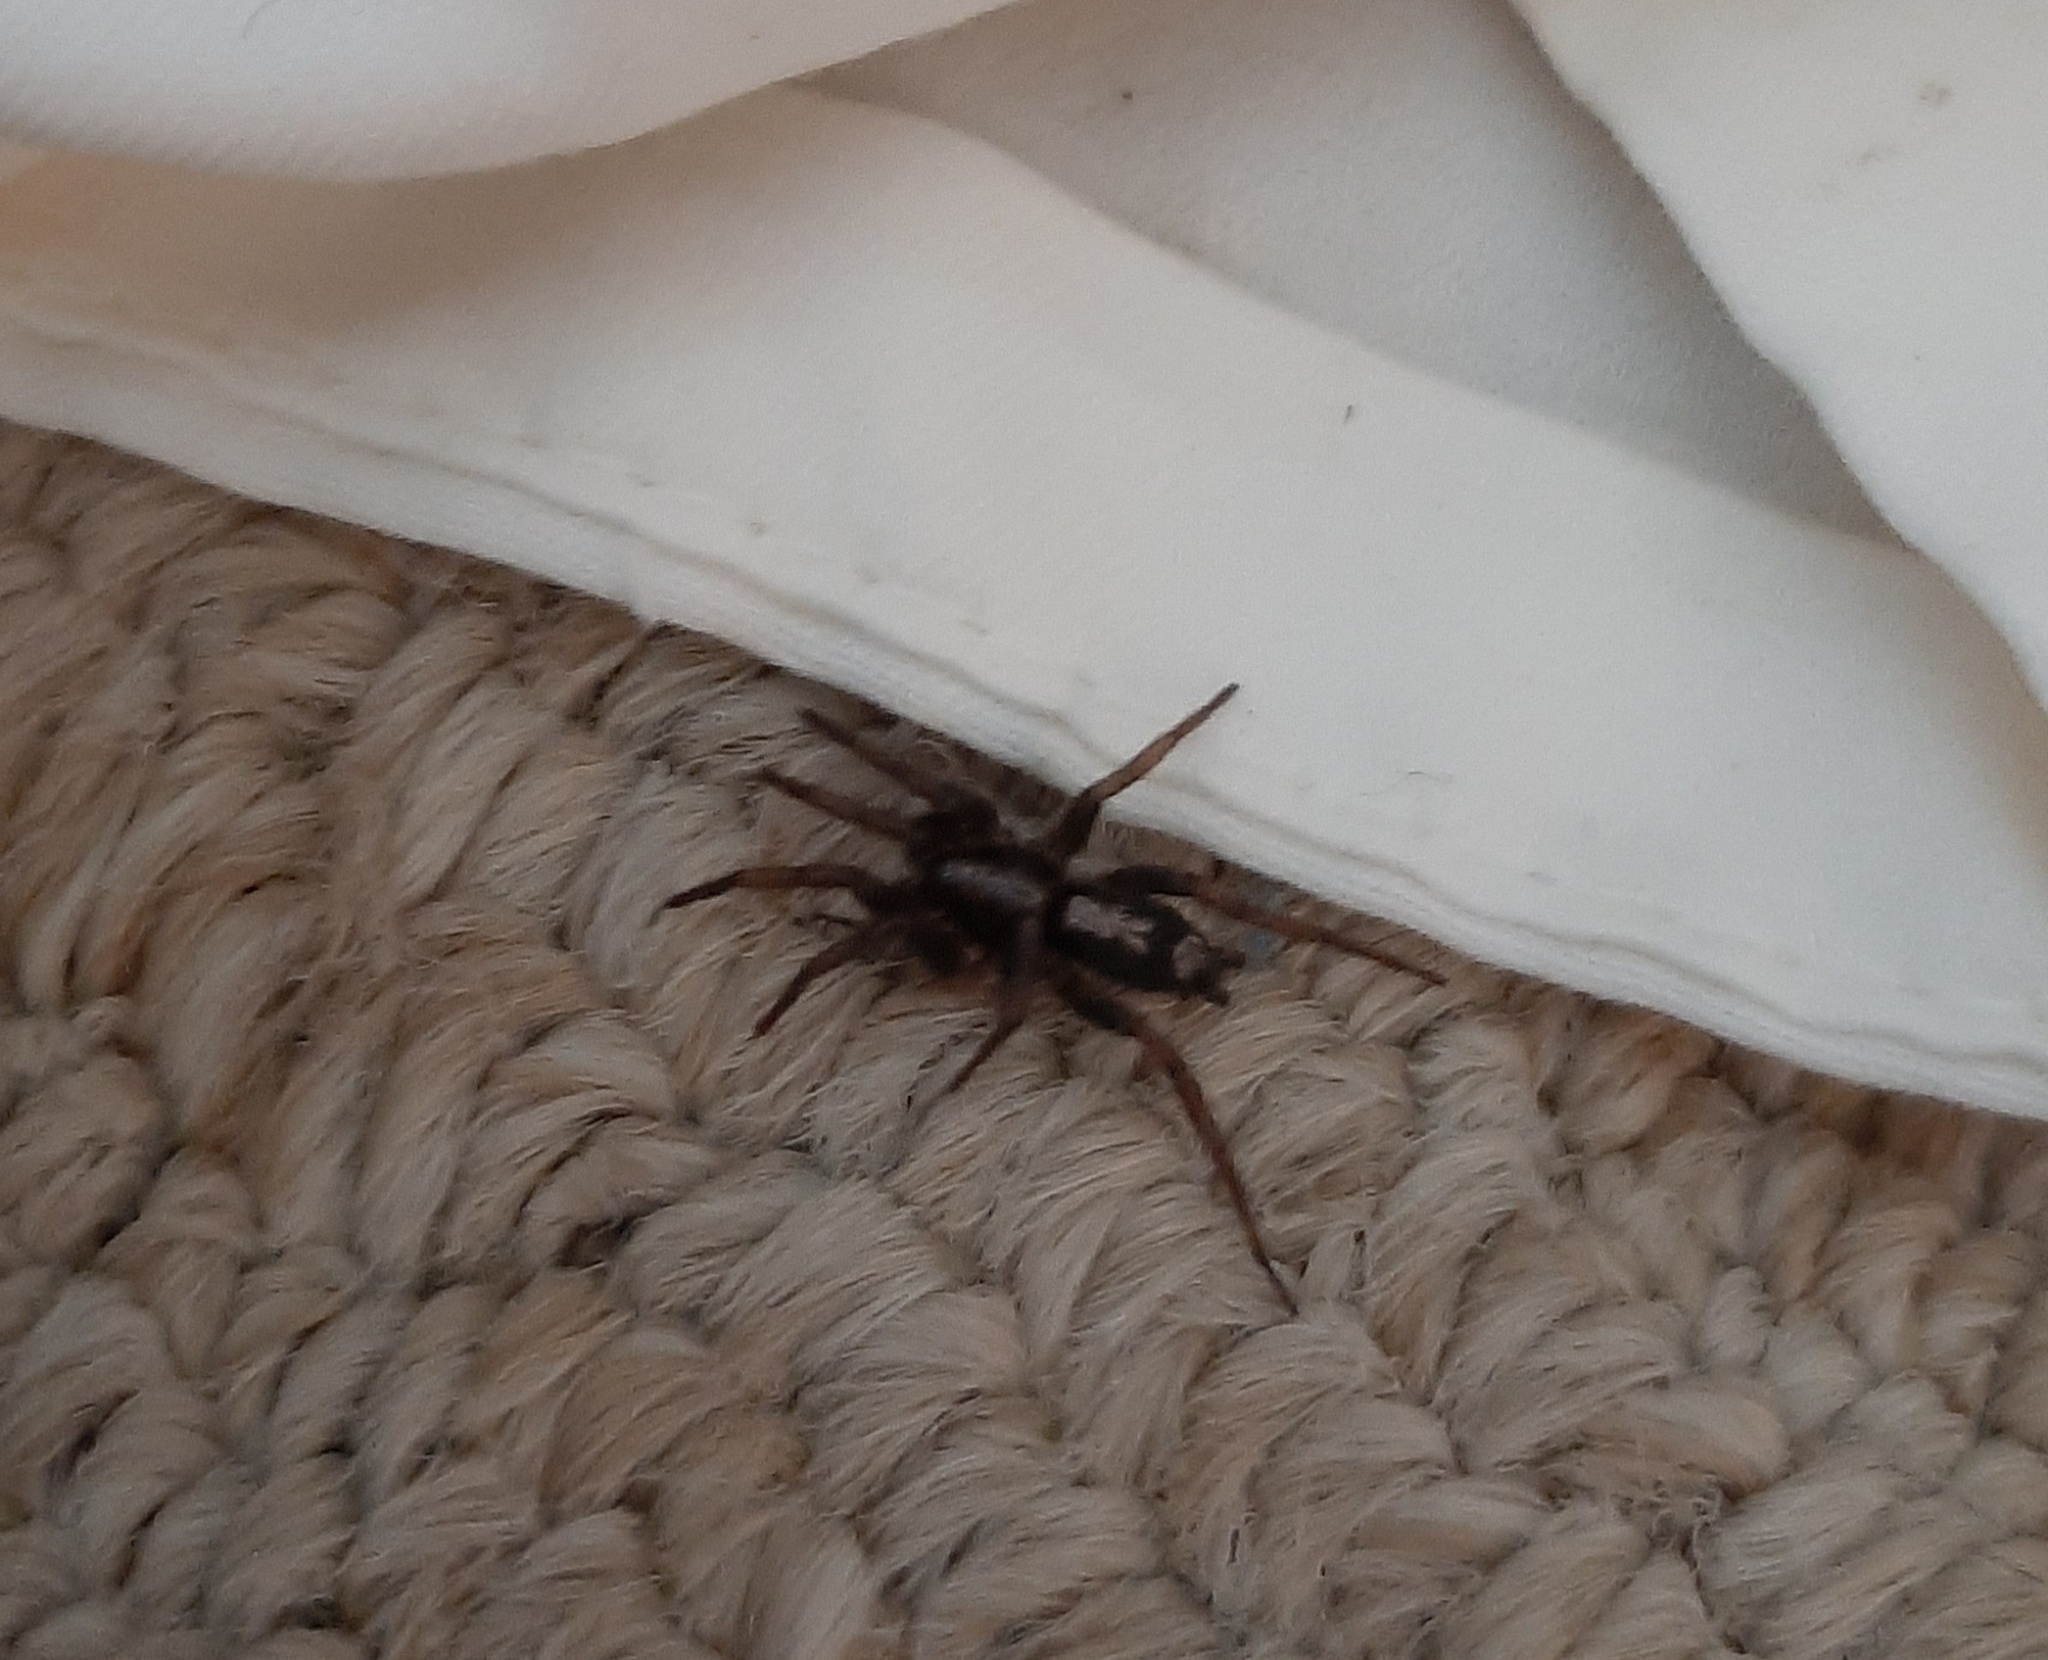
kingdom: Animalia
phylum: Arthropoda
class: Arachnida
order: Araneae
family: Gnaphosidae
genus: Herpyllus
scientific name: Herpyllus ecclesiasticus
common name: Eastern parson spider
